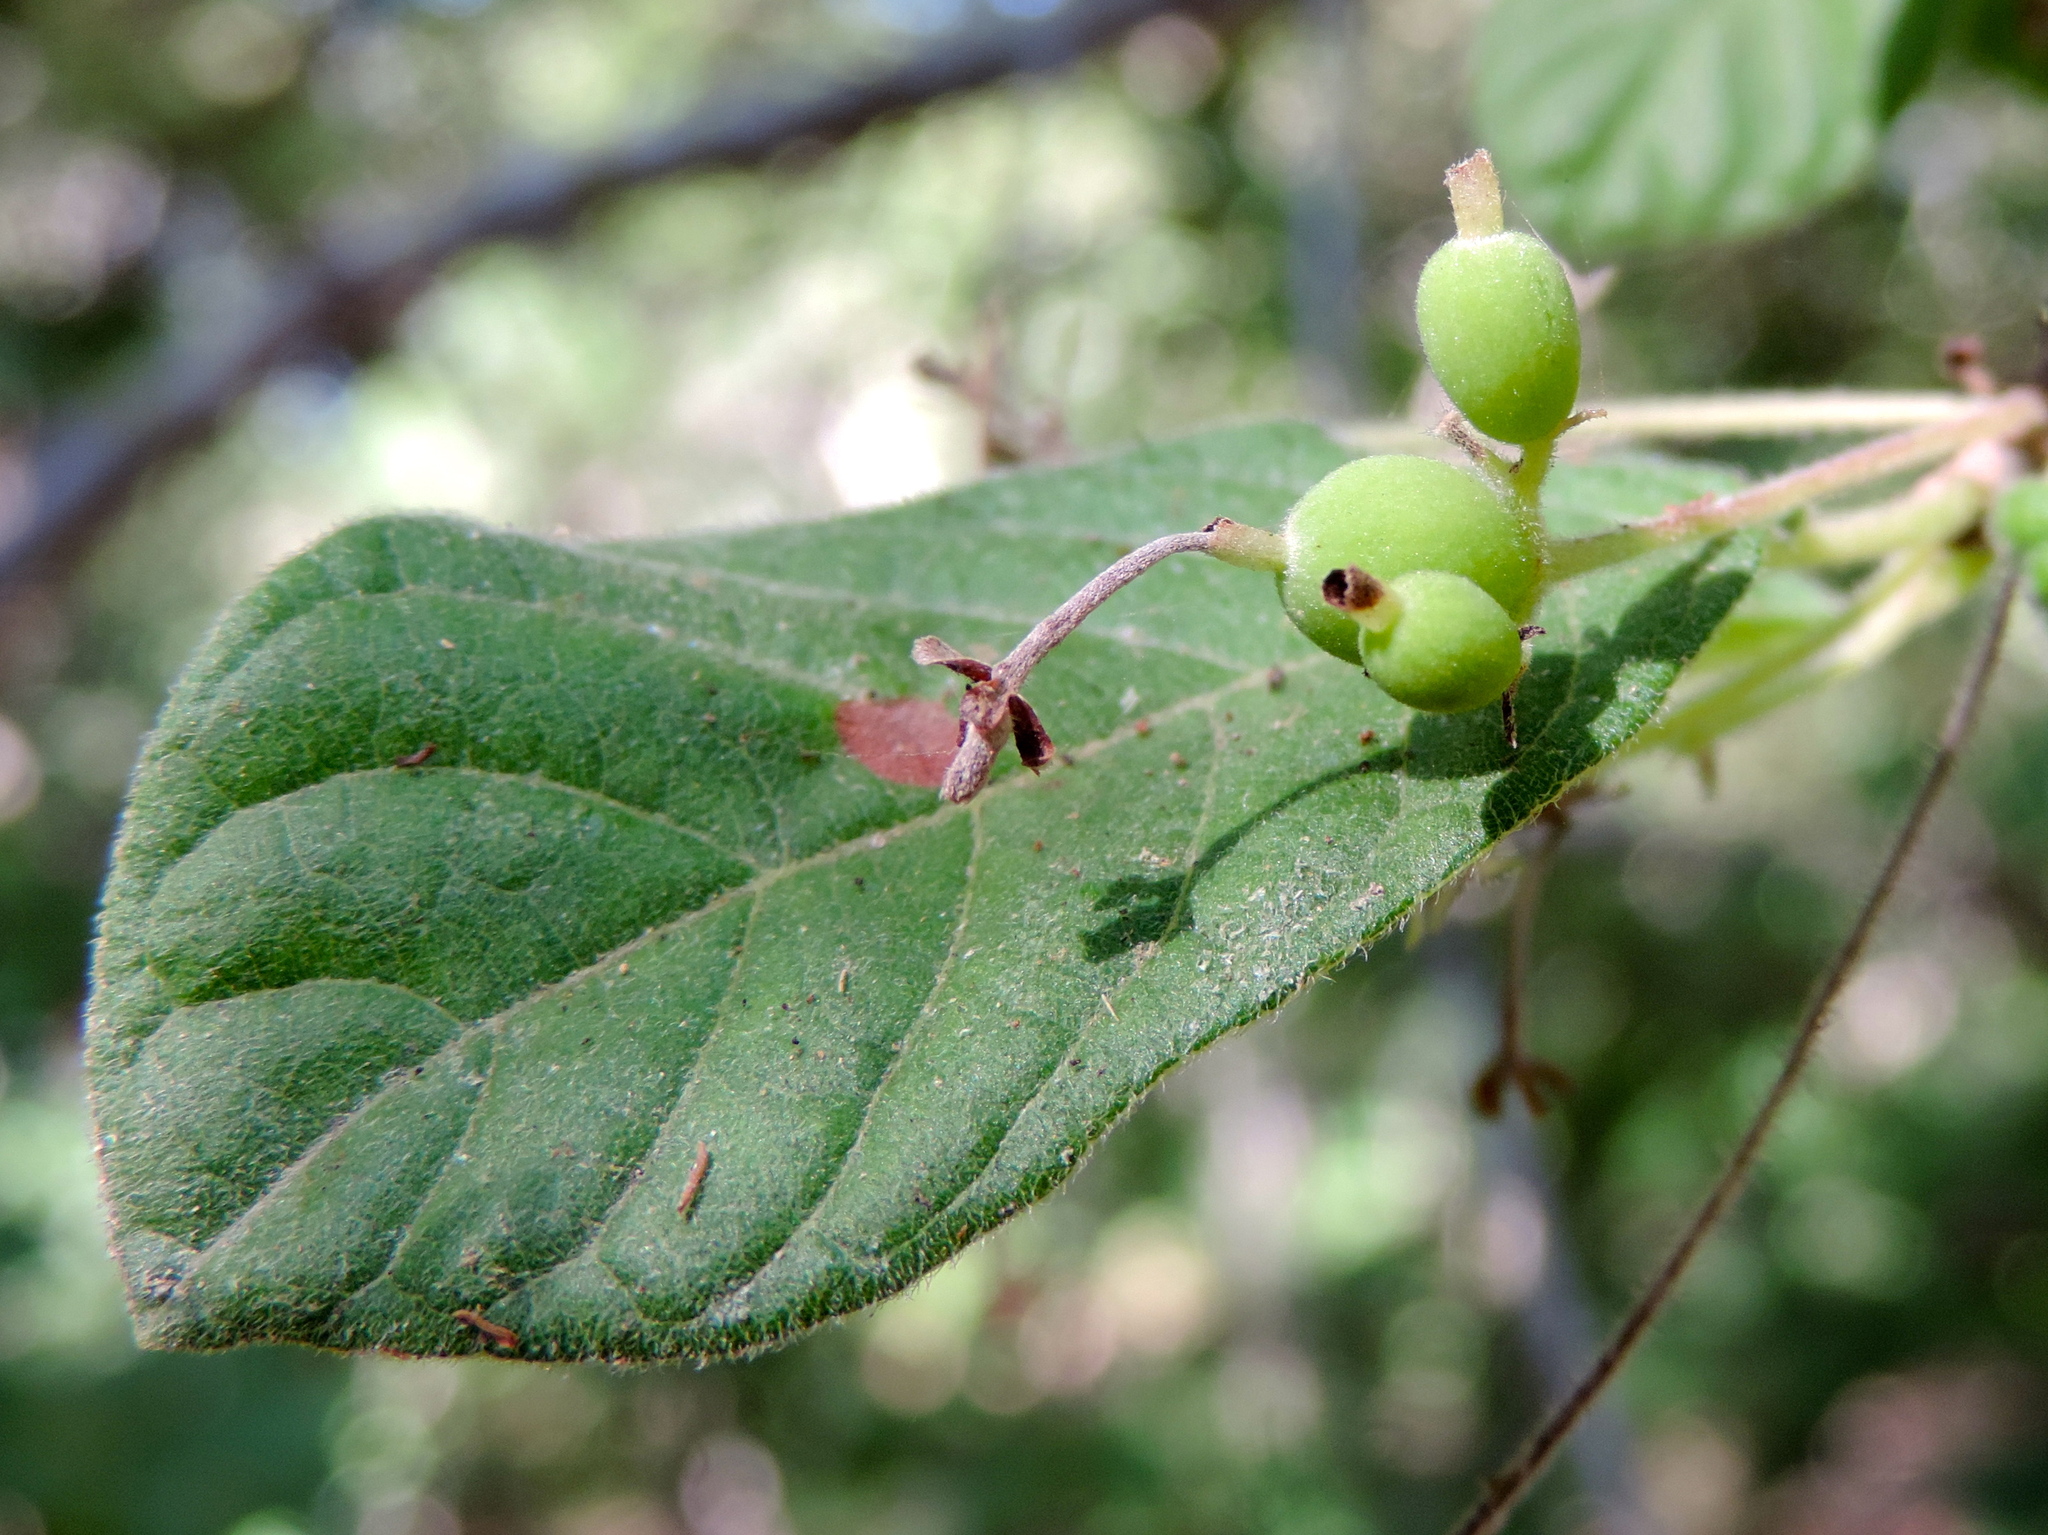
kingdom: Plantae
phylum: Tracheophyta
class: Magnoliopsida
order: Gentianales
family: Rubiaceae
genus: Guettarda
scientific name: Guettarda elliptica
